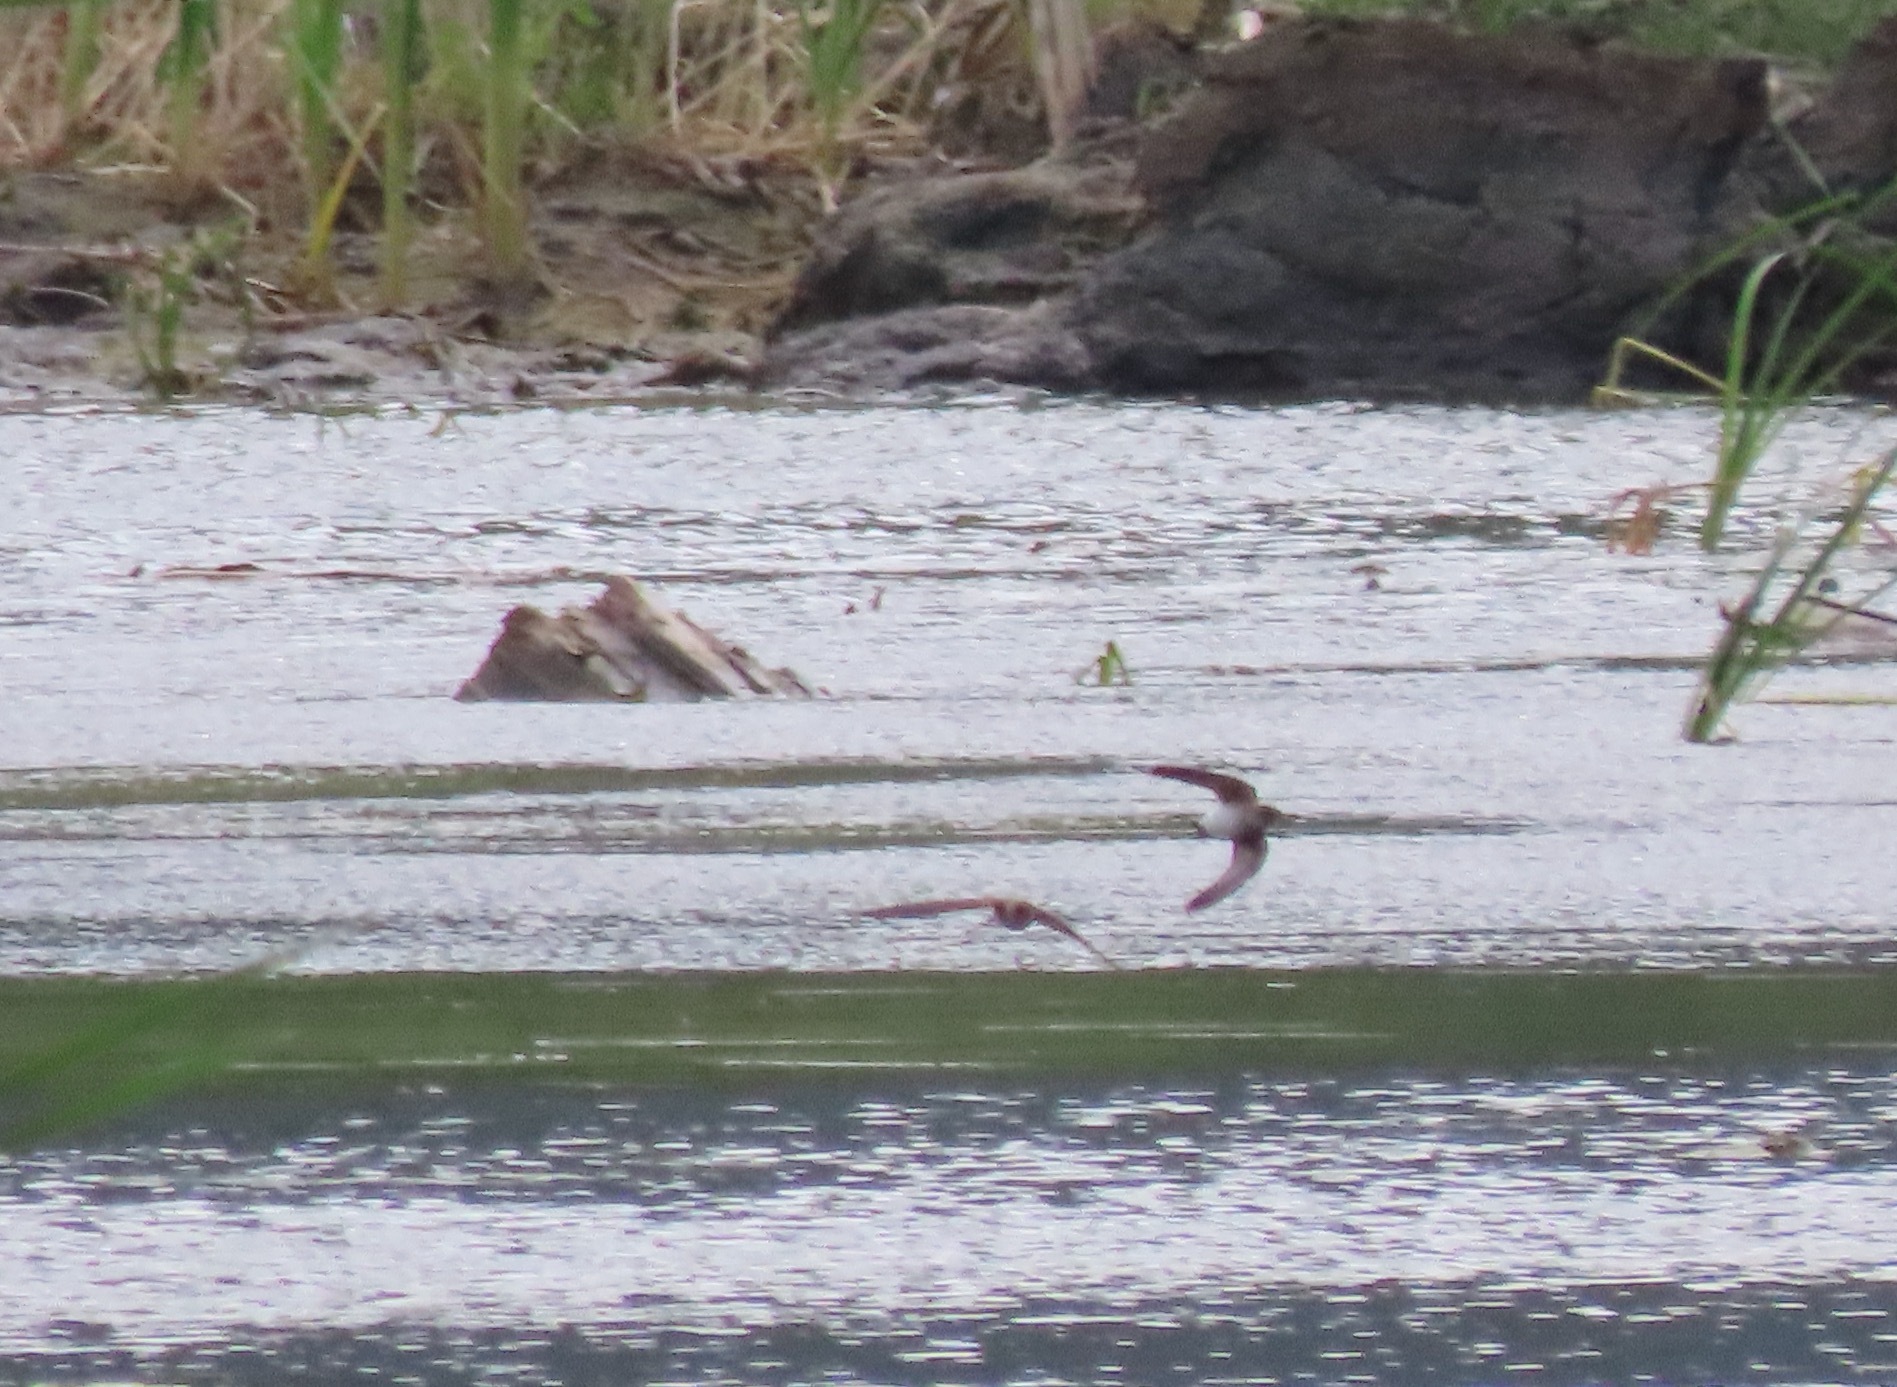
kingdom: Animalia
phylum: Chordata
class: Aves
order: Passeriformes
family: Hirundinidae
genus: Stelgidopteryx
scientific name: Stelgidopteryx serripennis
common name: Northern rough-winged swallow
